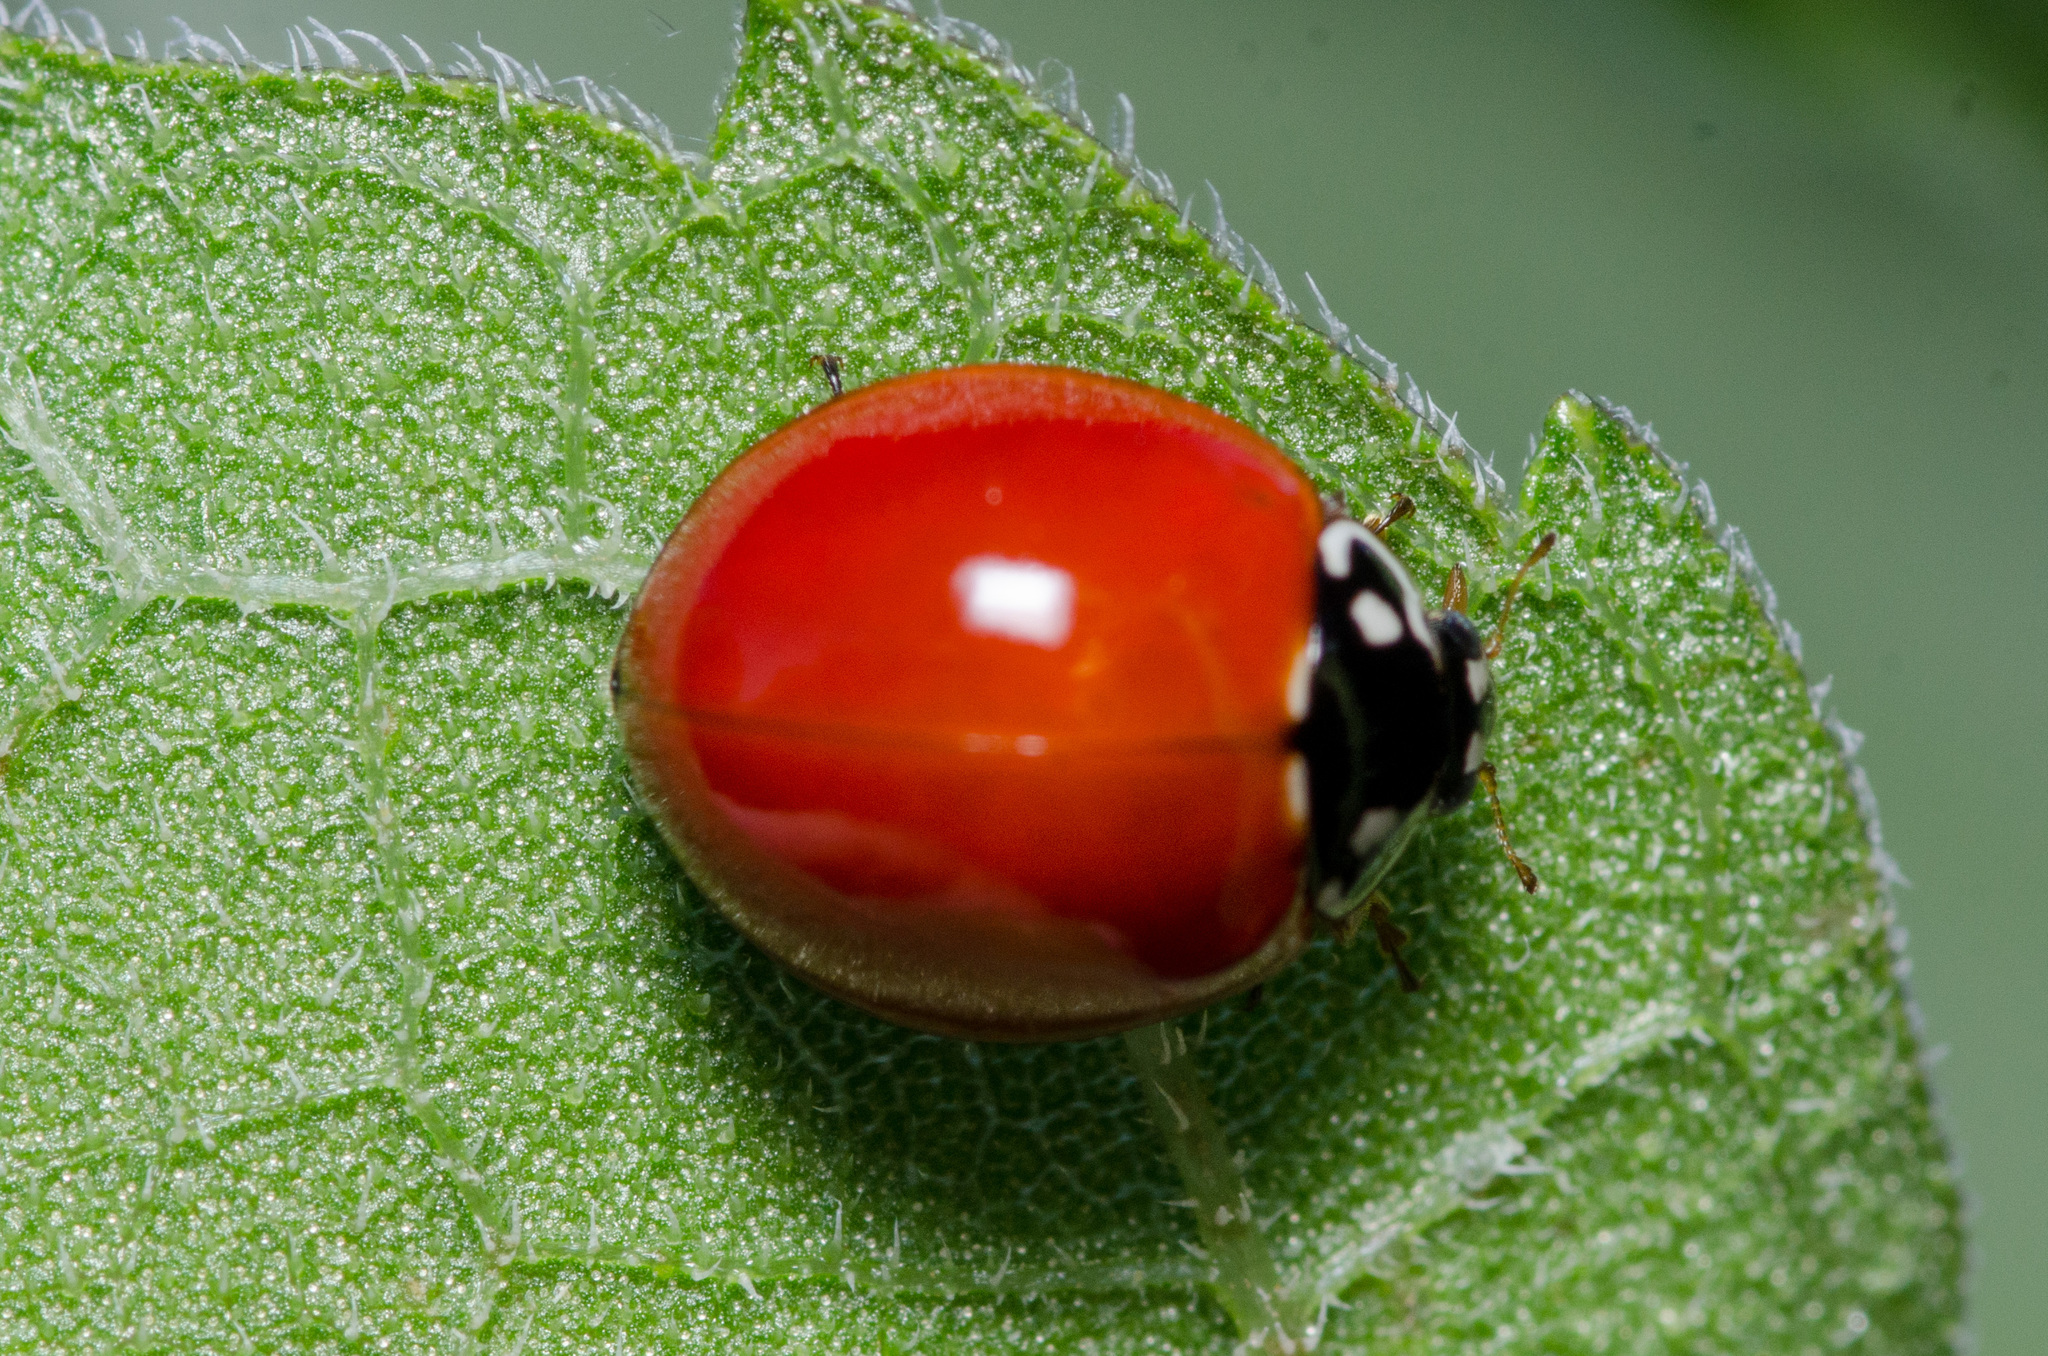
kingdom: Animalia
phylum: Arthropoda
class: Insecta
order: Coleoptera
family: Coccinellidae
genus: Cycloneda
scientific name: Cycloneda sanguinea
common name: Ladybird beetle
